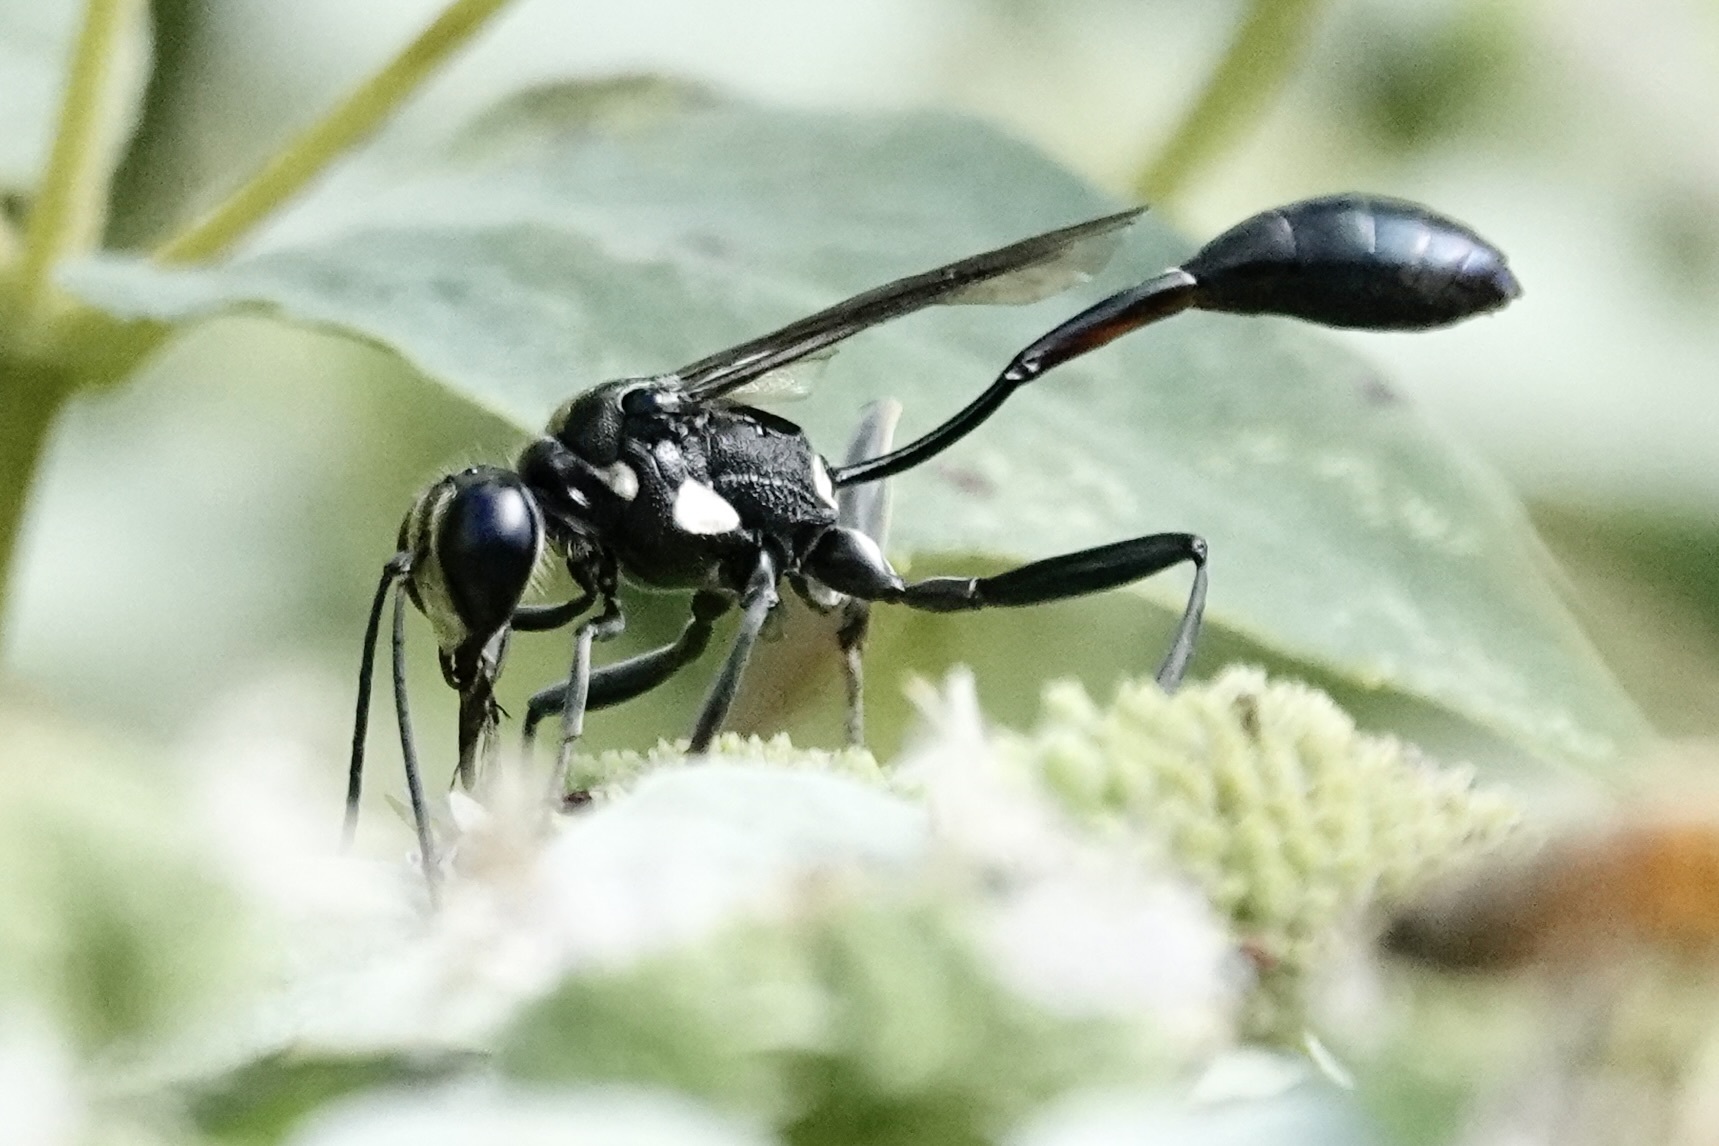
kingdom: Animalia
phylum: Arthropoda
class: Insecta
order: Hymenoptera
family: Sphecidae
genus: Eremnophila
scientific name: Eremnophila aureonotata
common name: Gold-marked thread-waisted wasp
